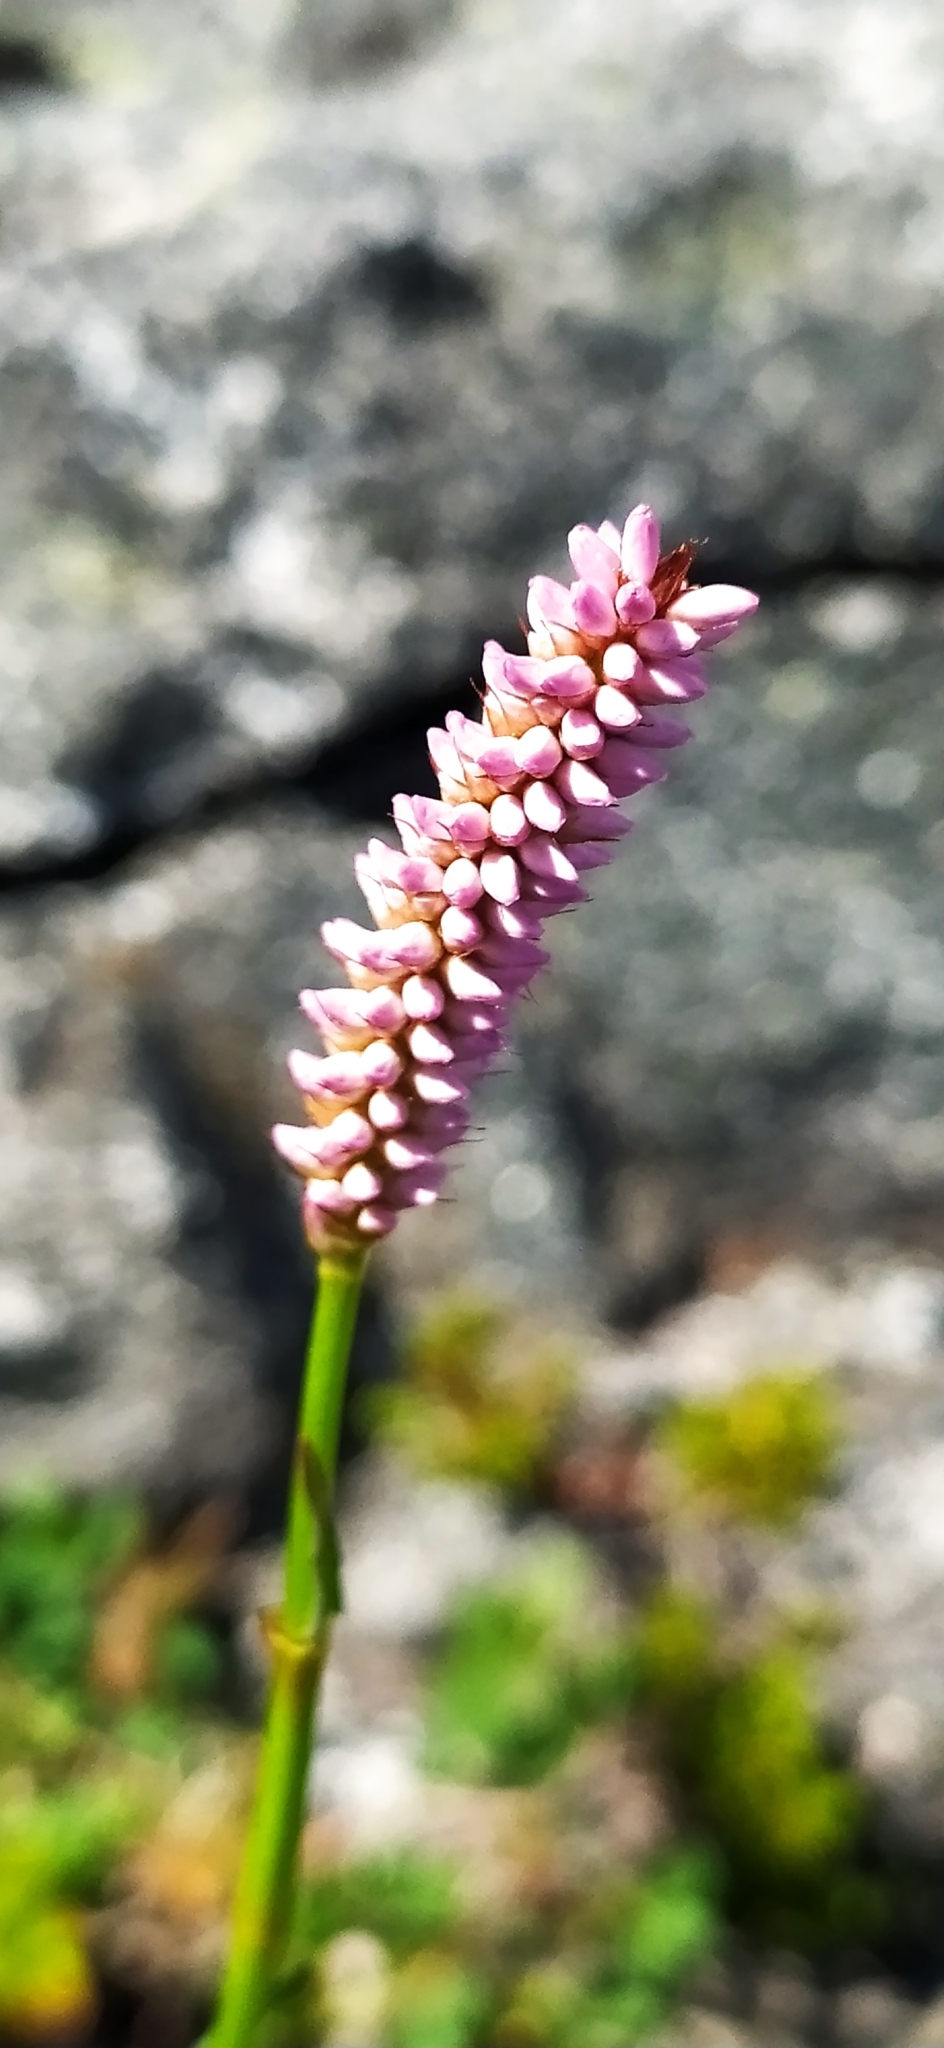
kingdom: Plantae
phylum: Tracheophyta
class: Magnoliopsida
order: Caryophyllales
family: Polygonaceae
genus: Bistorta
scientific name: Bistorta officinalis
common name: Common bistort
